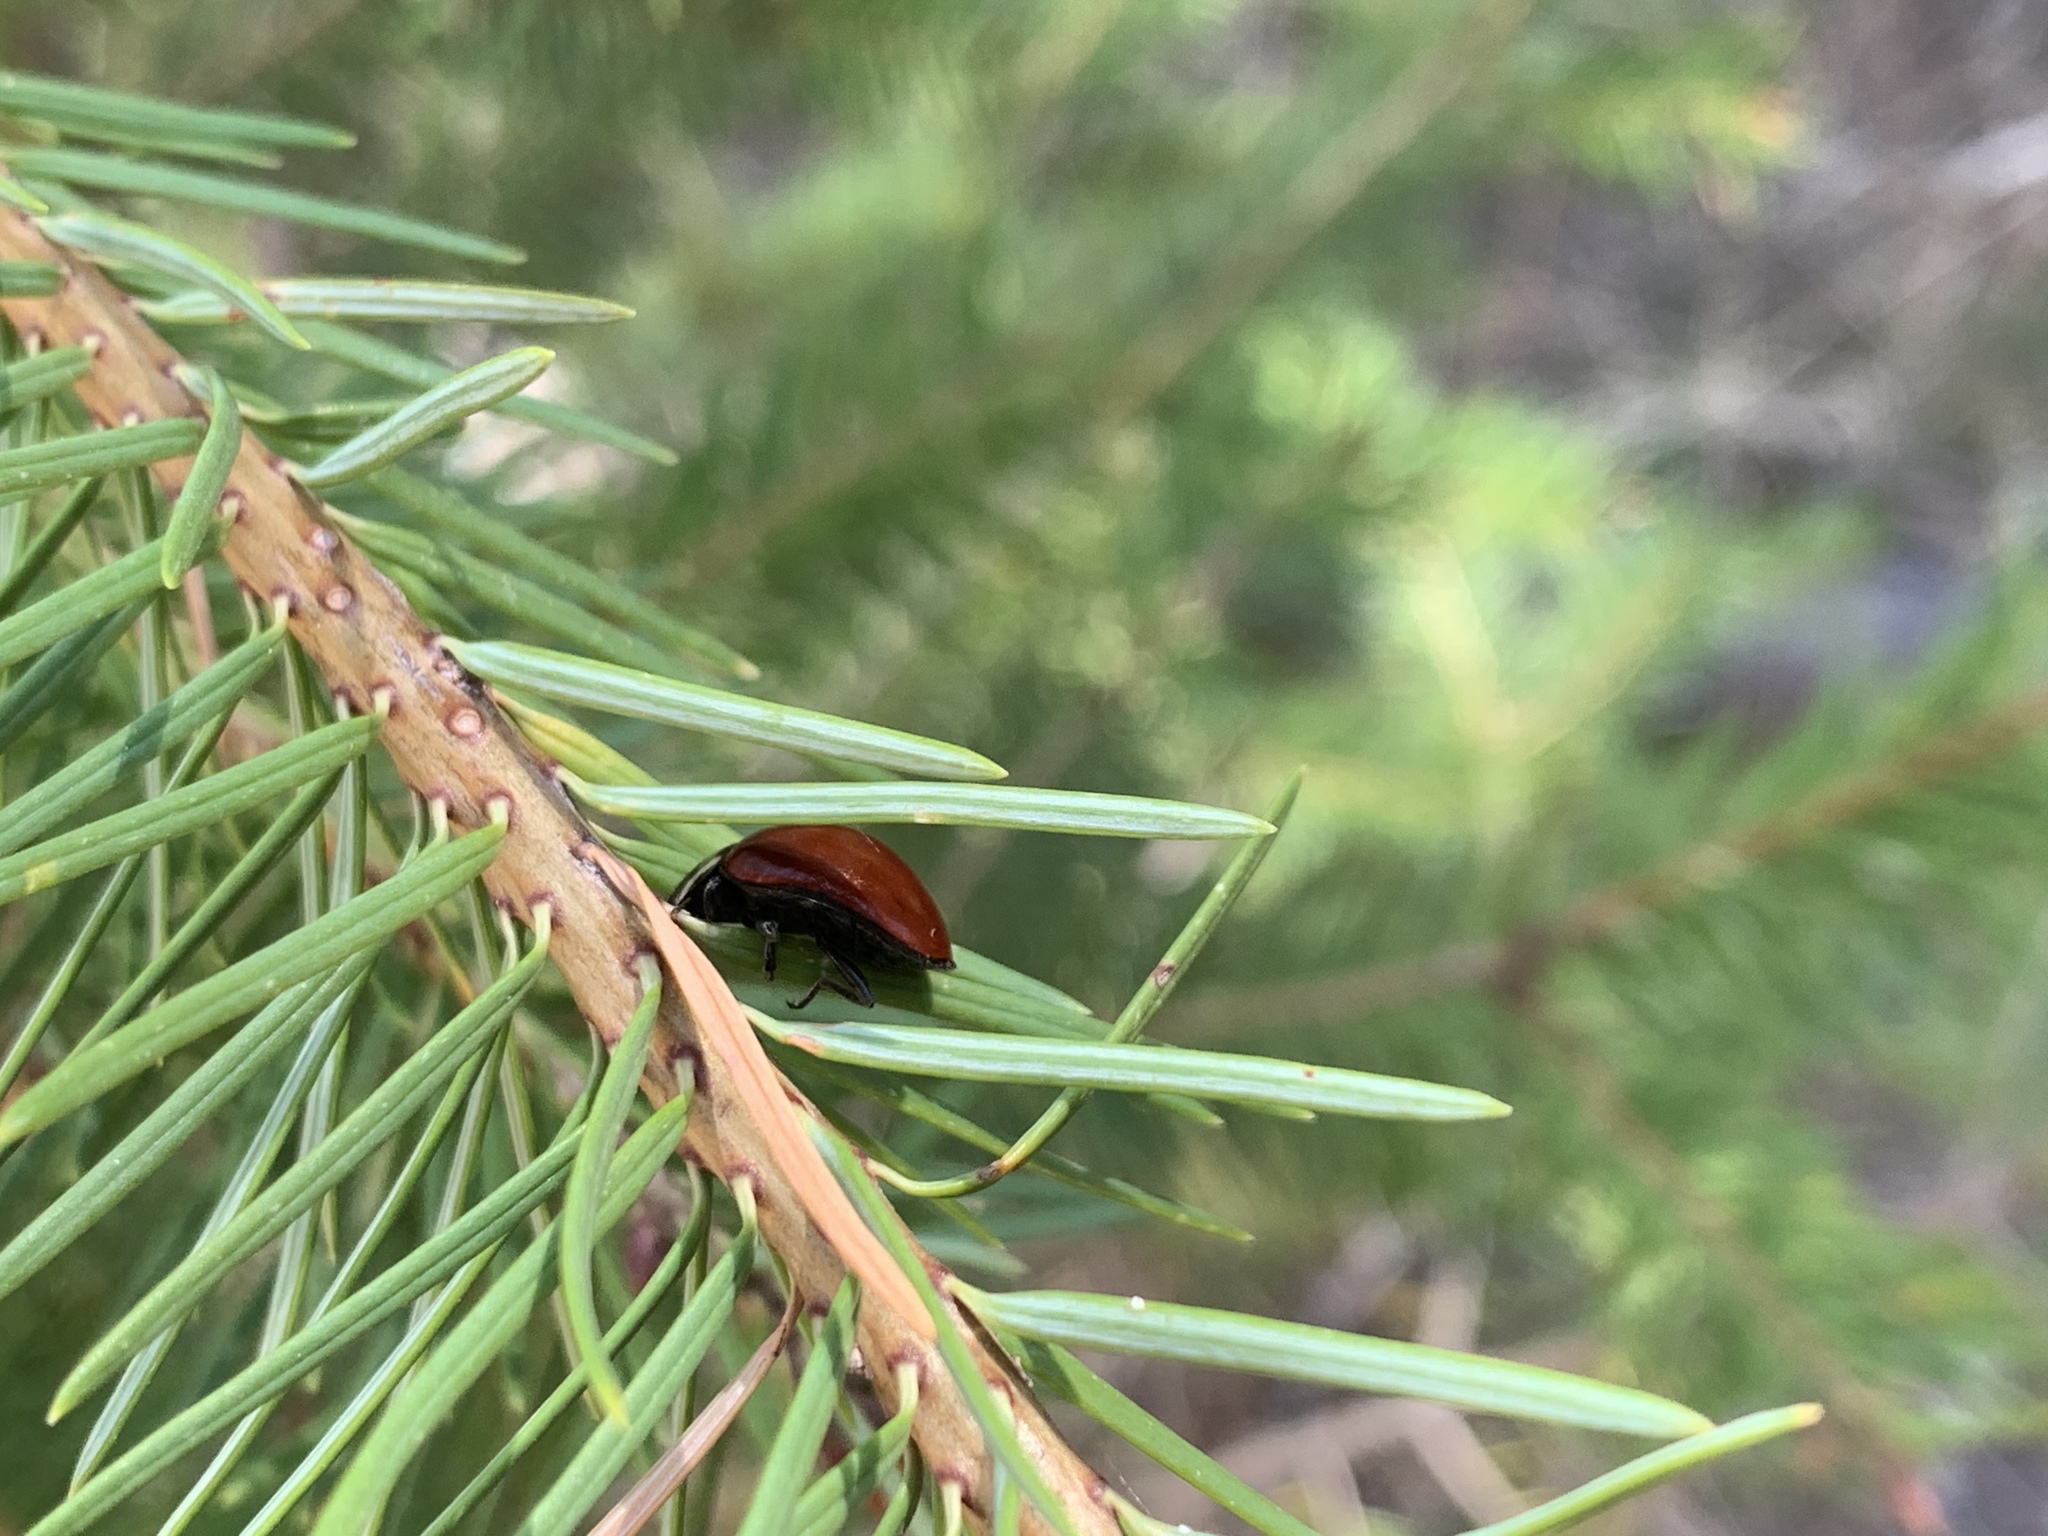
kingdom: Animalia
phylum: Arthropoda
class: Insecta
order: Coleoptera
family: Coccinellidae
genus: Anatis
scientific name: Anatis lecontei
